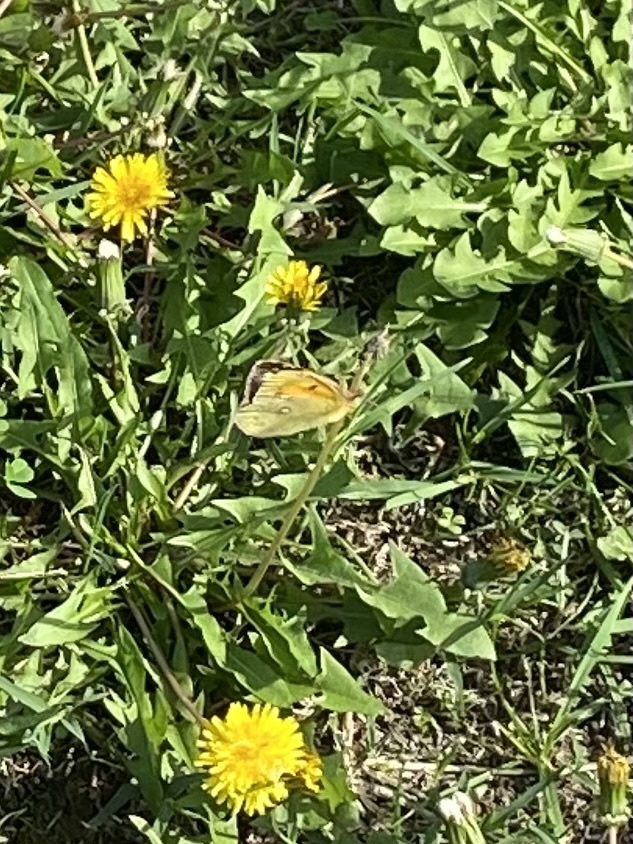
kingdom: Animalia
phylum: Arthropoda
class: Insecta
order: Lepidoptera
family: Pieridae
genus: Colias
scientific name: Colias croceus
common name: Clouded yellow
